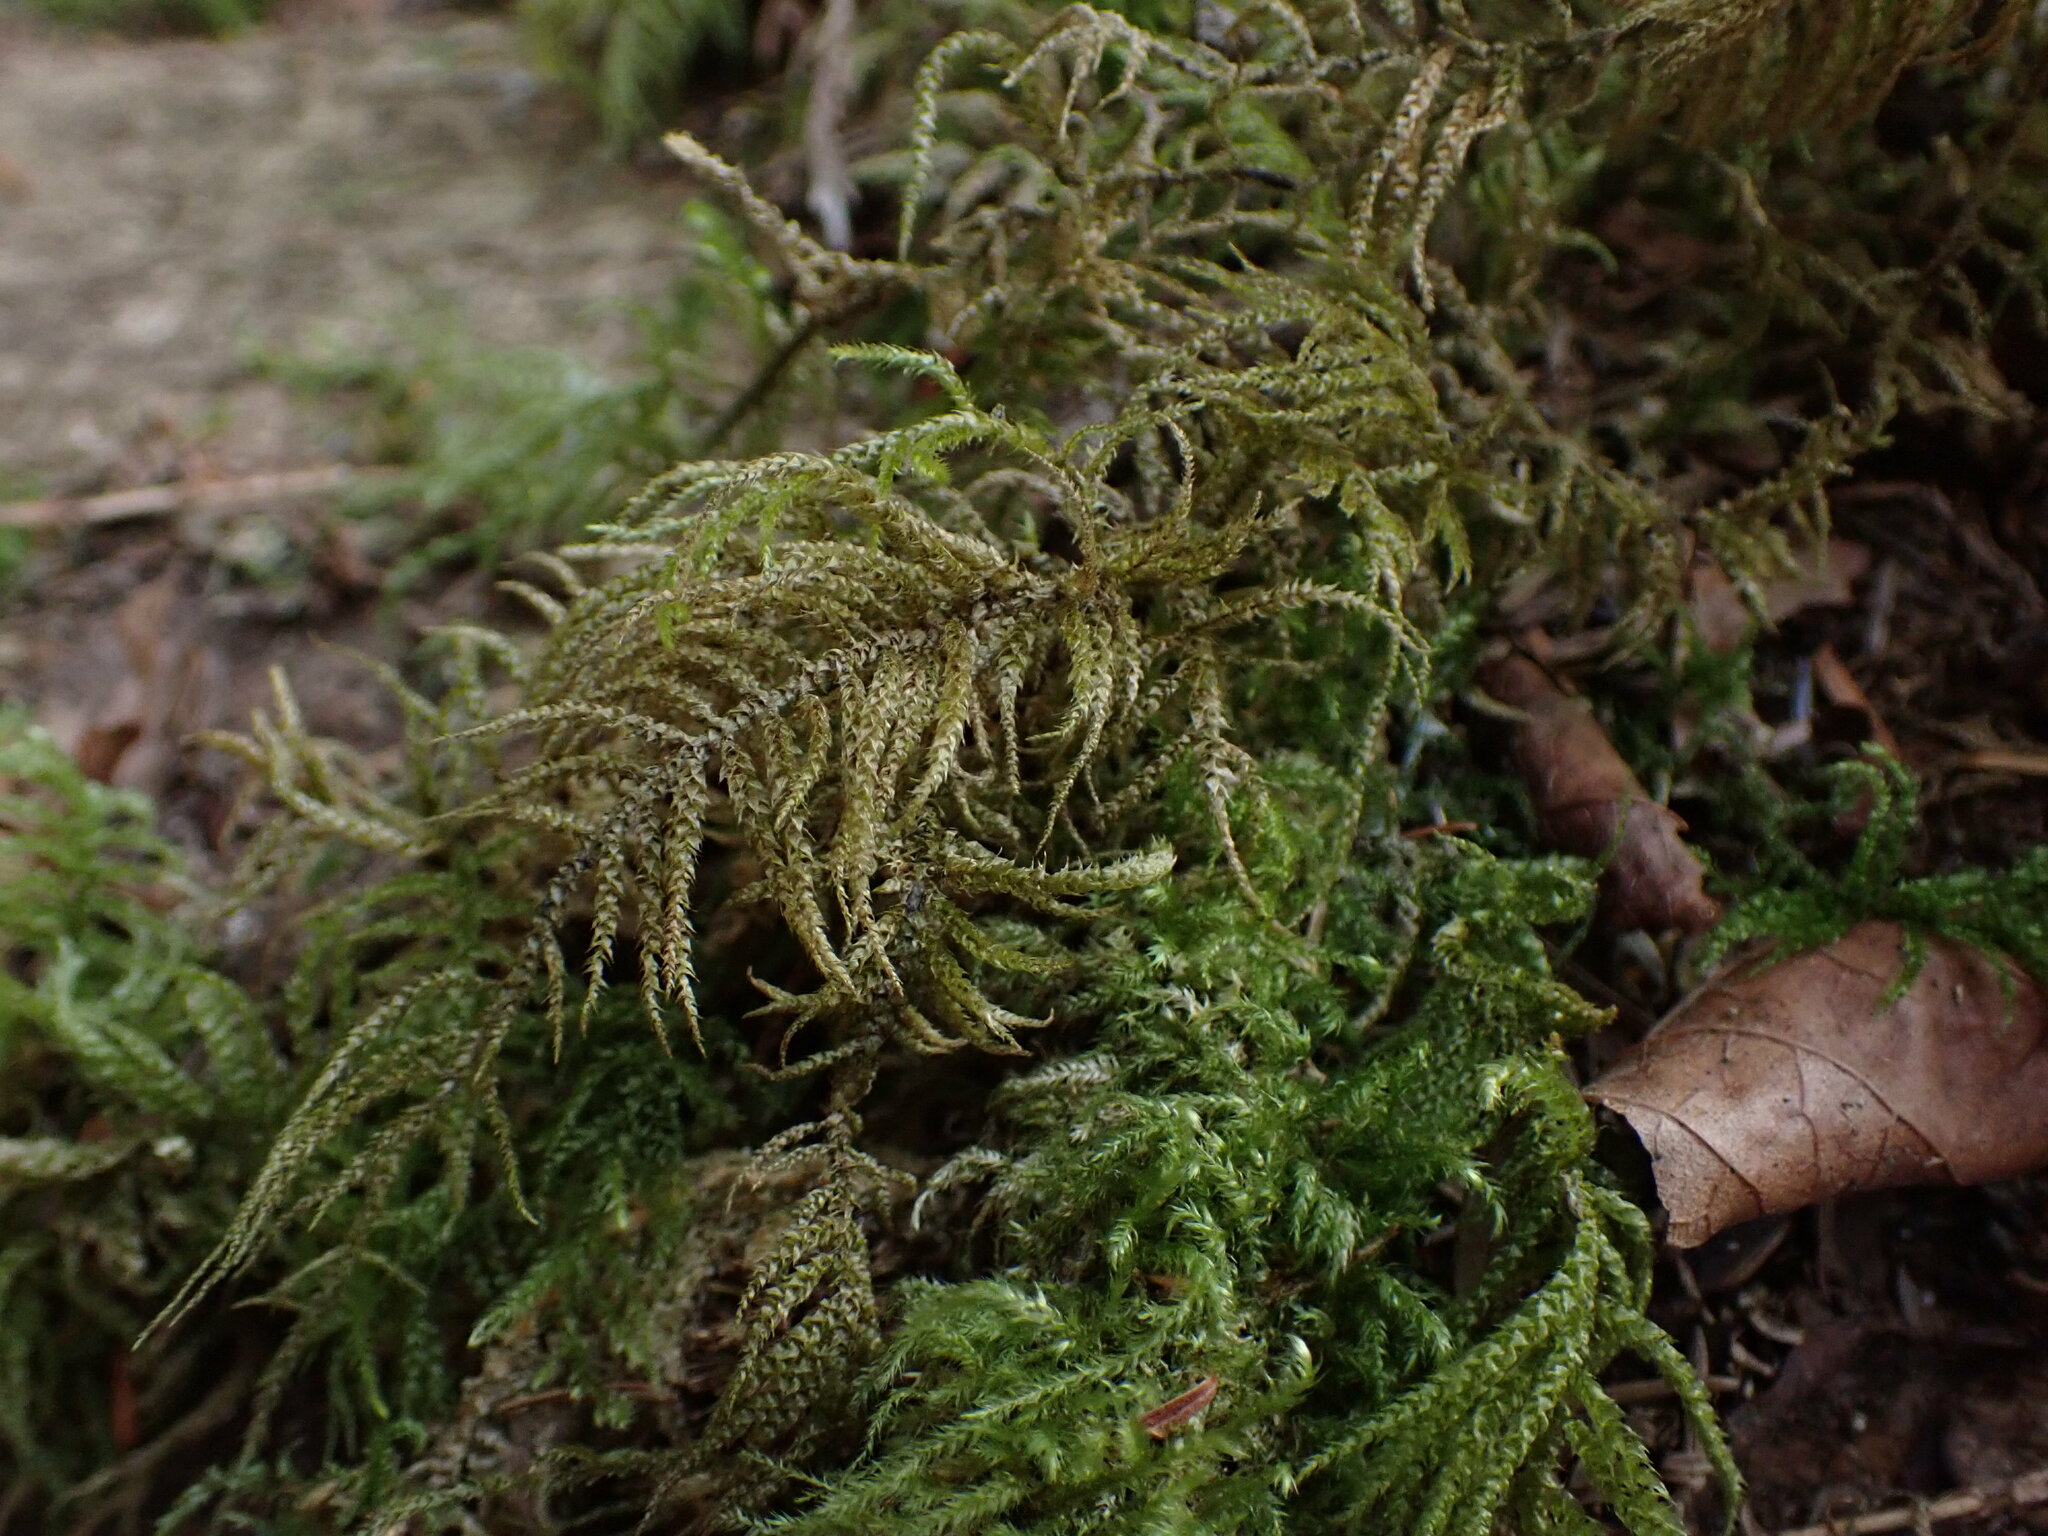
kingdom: Plantae
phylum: Bryophyta
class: Bryopsida
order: Hypnales
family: Brachytheciaceae
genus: Kindbergia
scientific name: Kindbergia oregana
